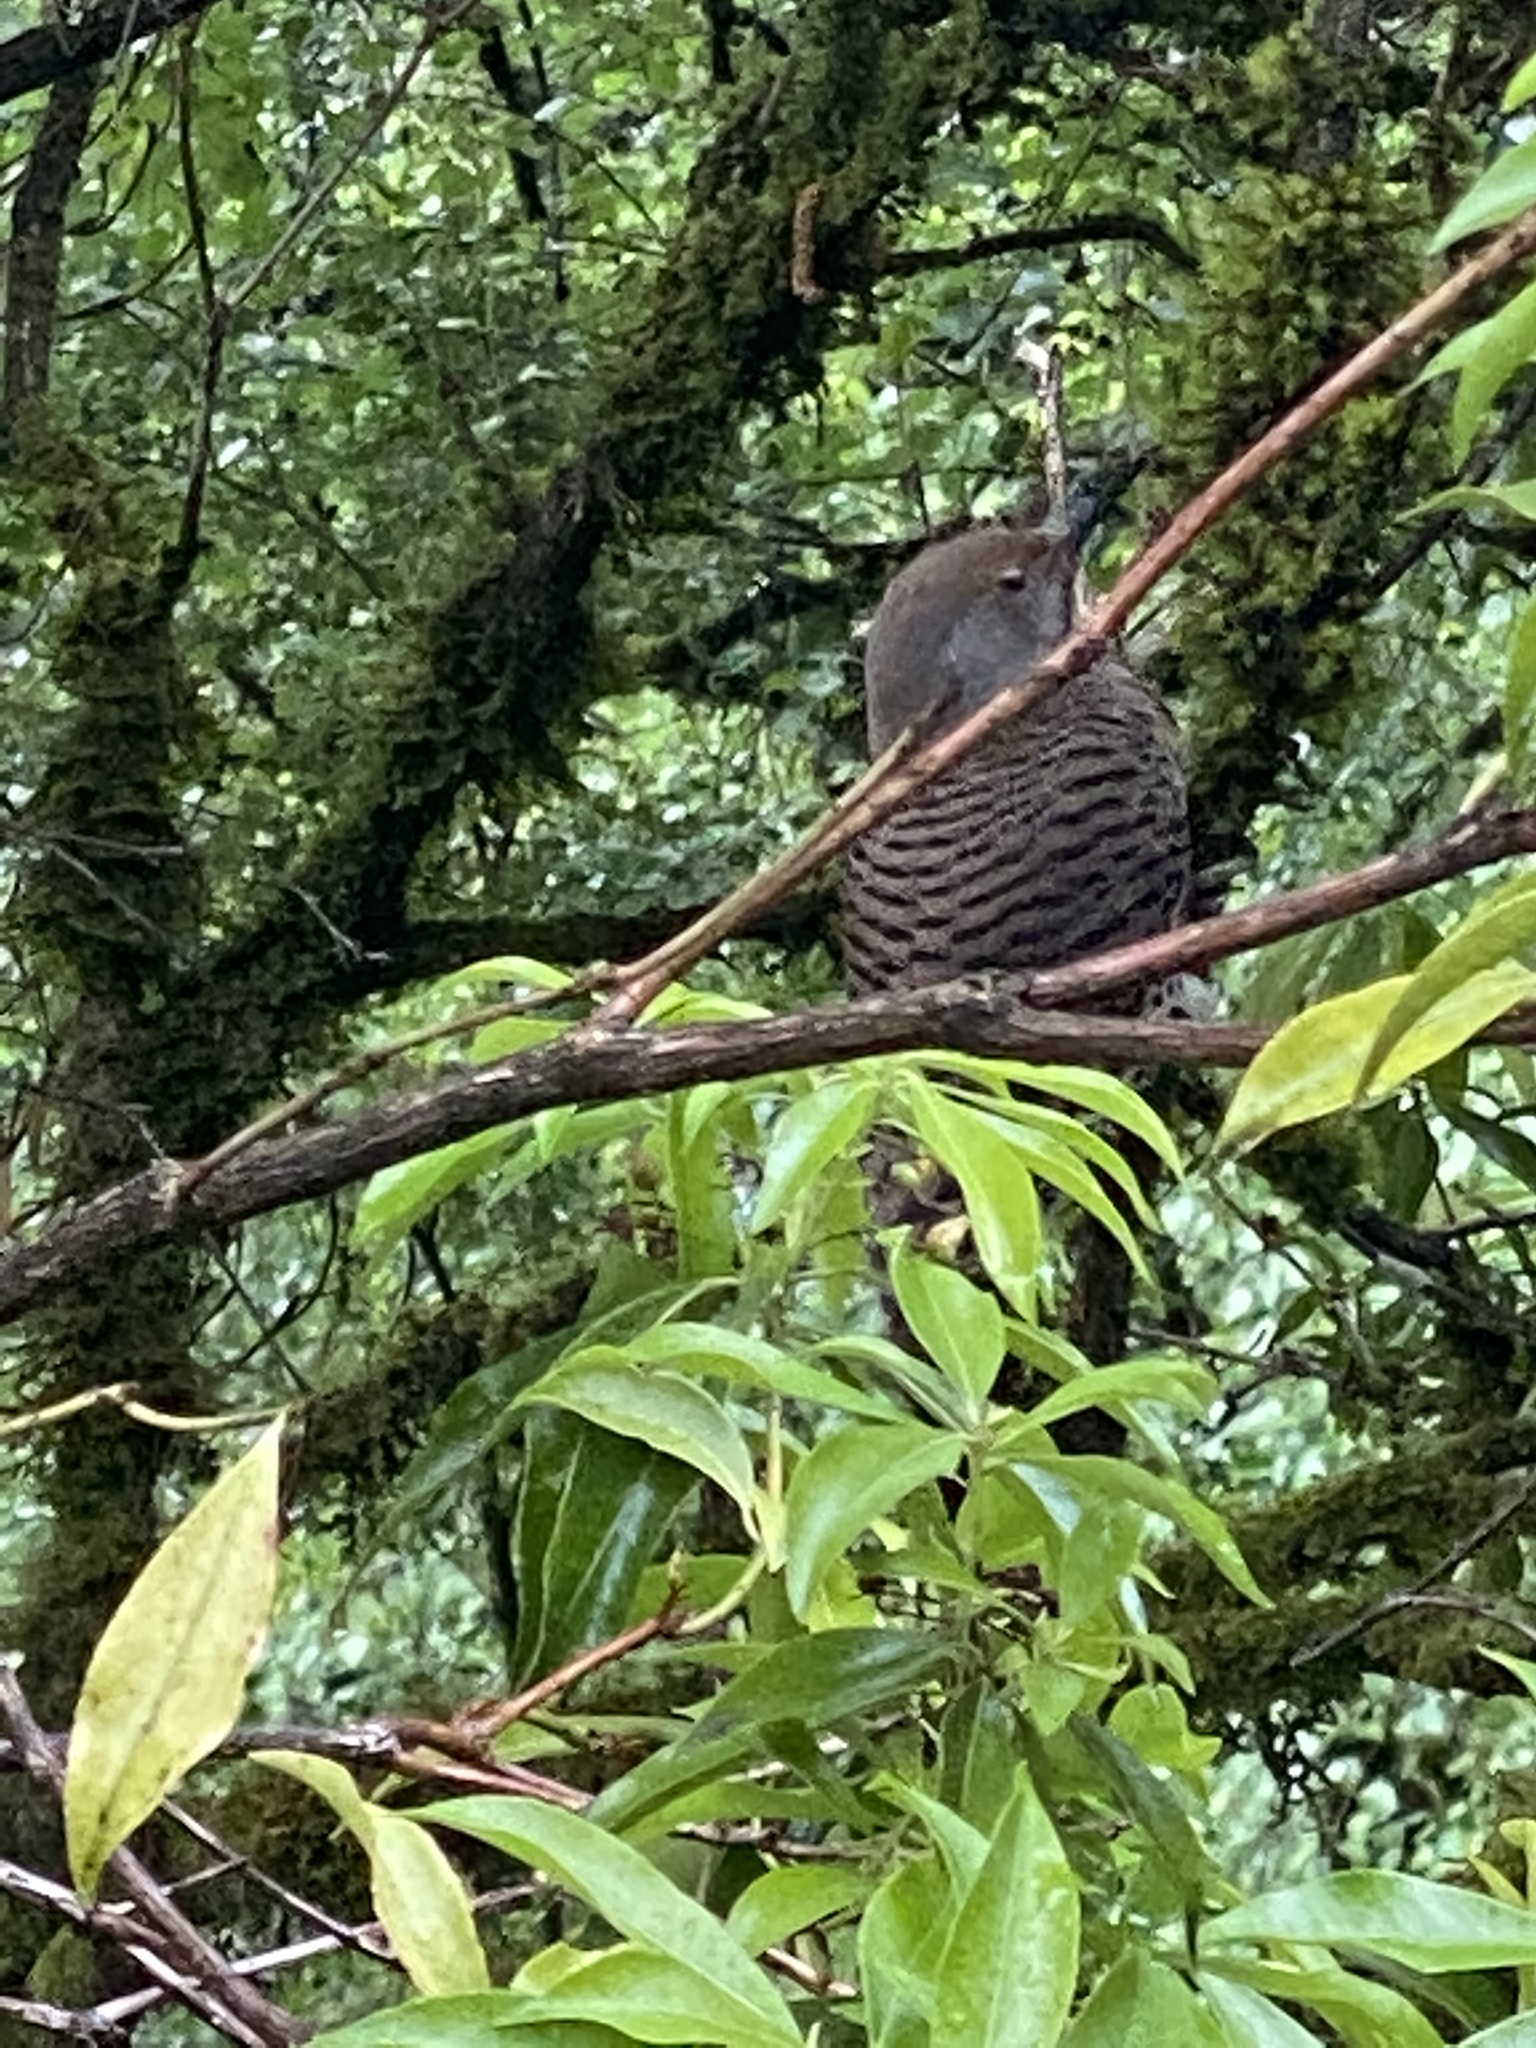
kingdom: Animalia
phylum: Chordata
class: Aves
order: Piciformes
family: Picidae
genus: Colaptes
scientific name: Colaptes auratus
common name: Northern flicker
